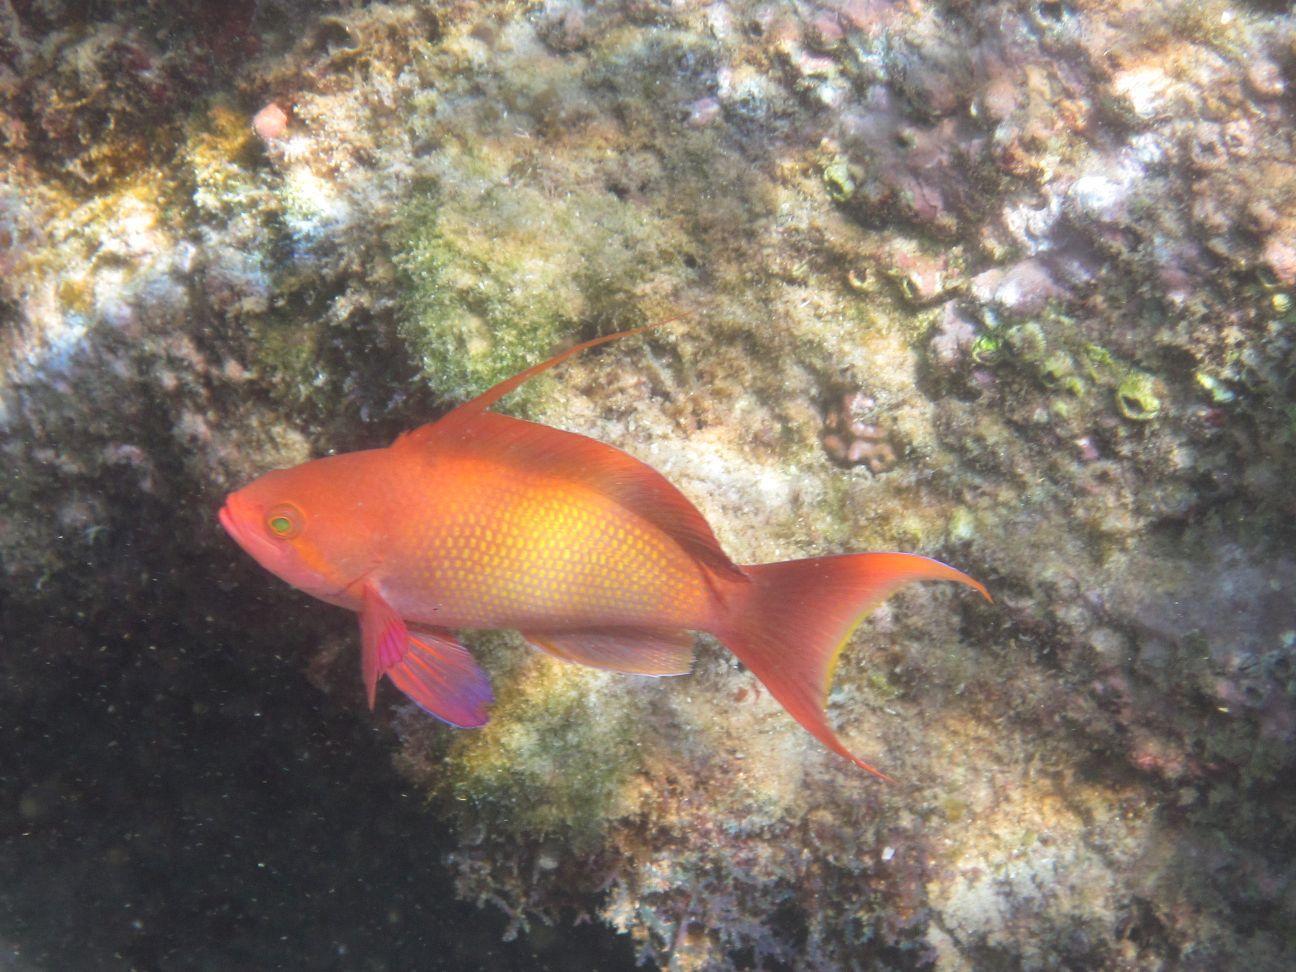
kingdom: Animalia
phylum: Chordata
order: Perciformes
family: Serranidae
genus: Pseudanthias
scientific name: Pseudanthias squamipinnis
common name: Scalefin anthias
